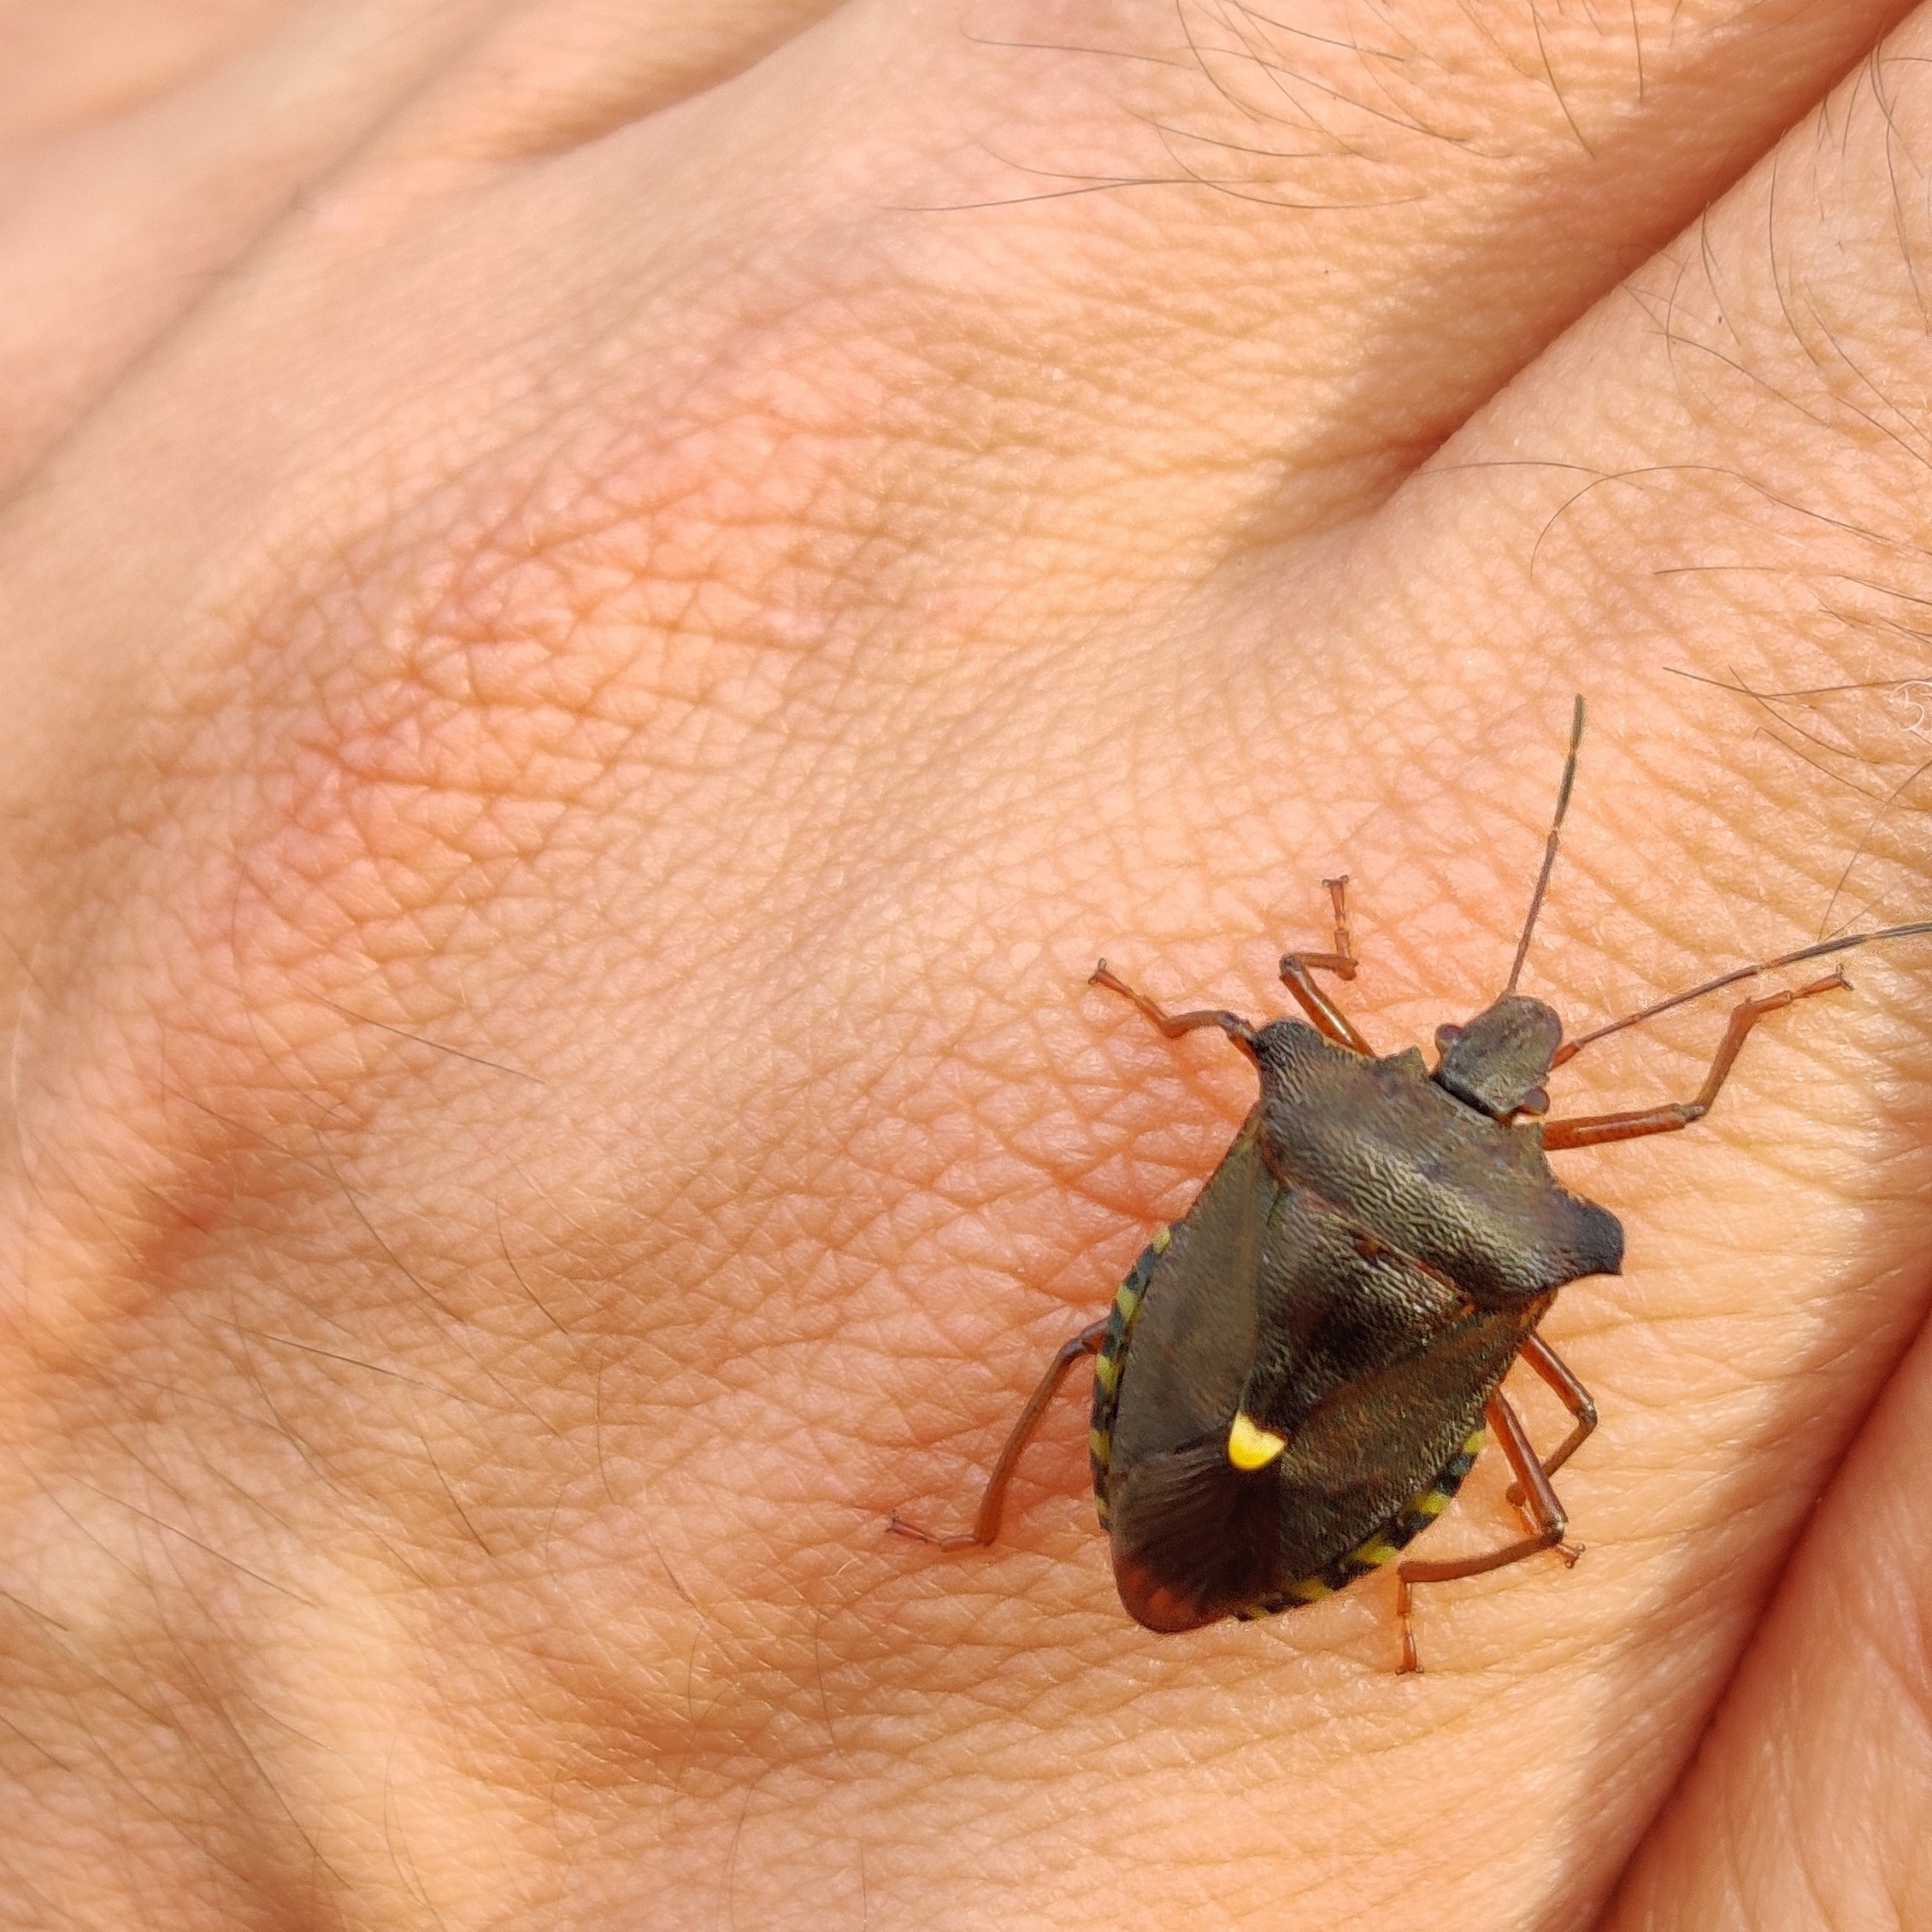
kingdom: Animalia
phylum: Arthropoda
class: Insecta
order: Hemiptera
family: Pentatomidae
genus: Pentatoma
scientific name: Pentatoma rufipes
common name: Forest bug
